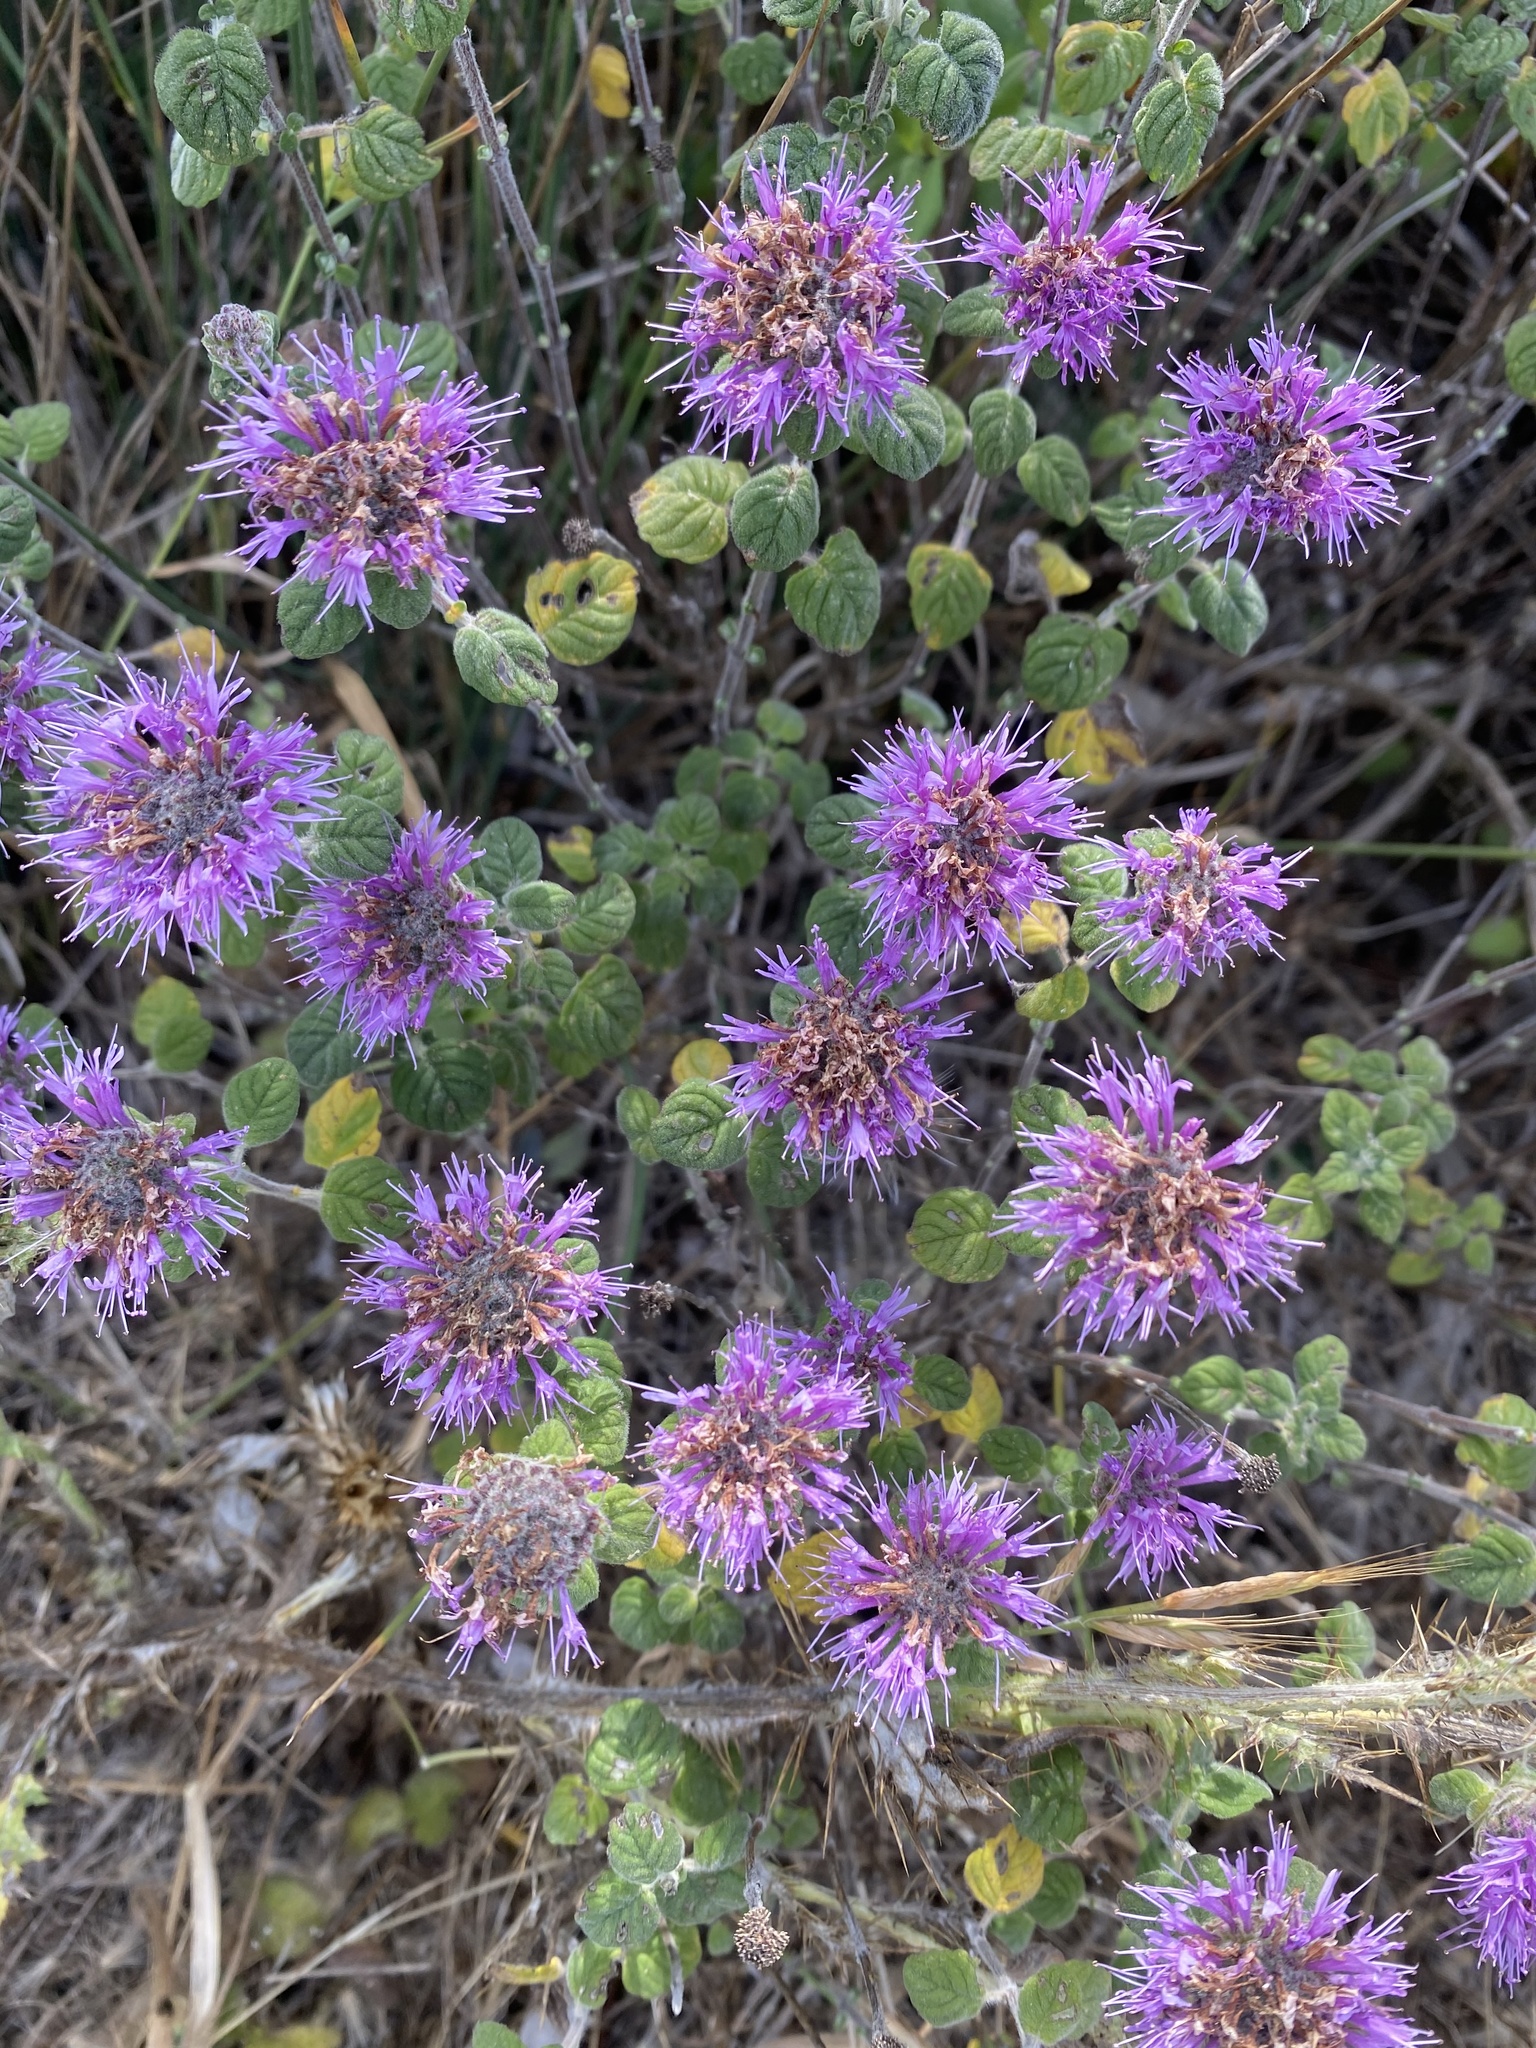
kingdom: Plantae
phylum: Tracheophyta
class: Magnoliopsida
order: Lamiales
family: Lamiaceae
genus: Monardella
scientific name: Monardella odoratissima
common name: Pacific monardella
